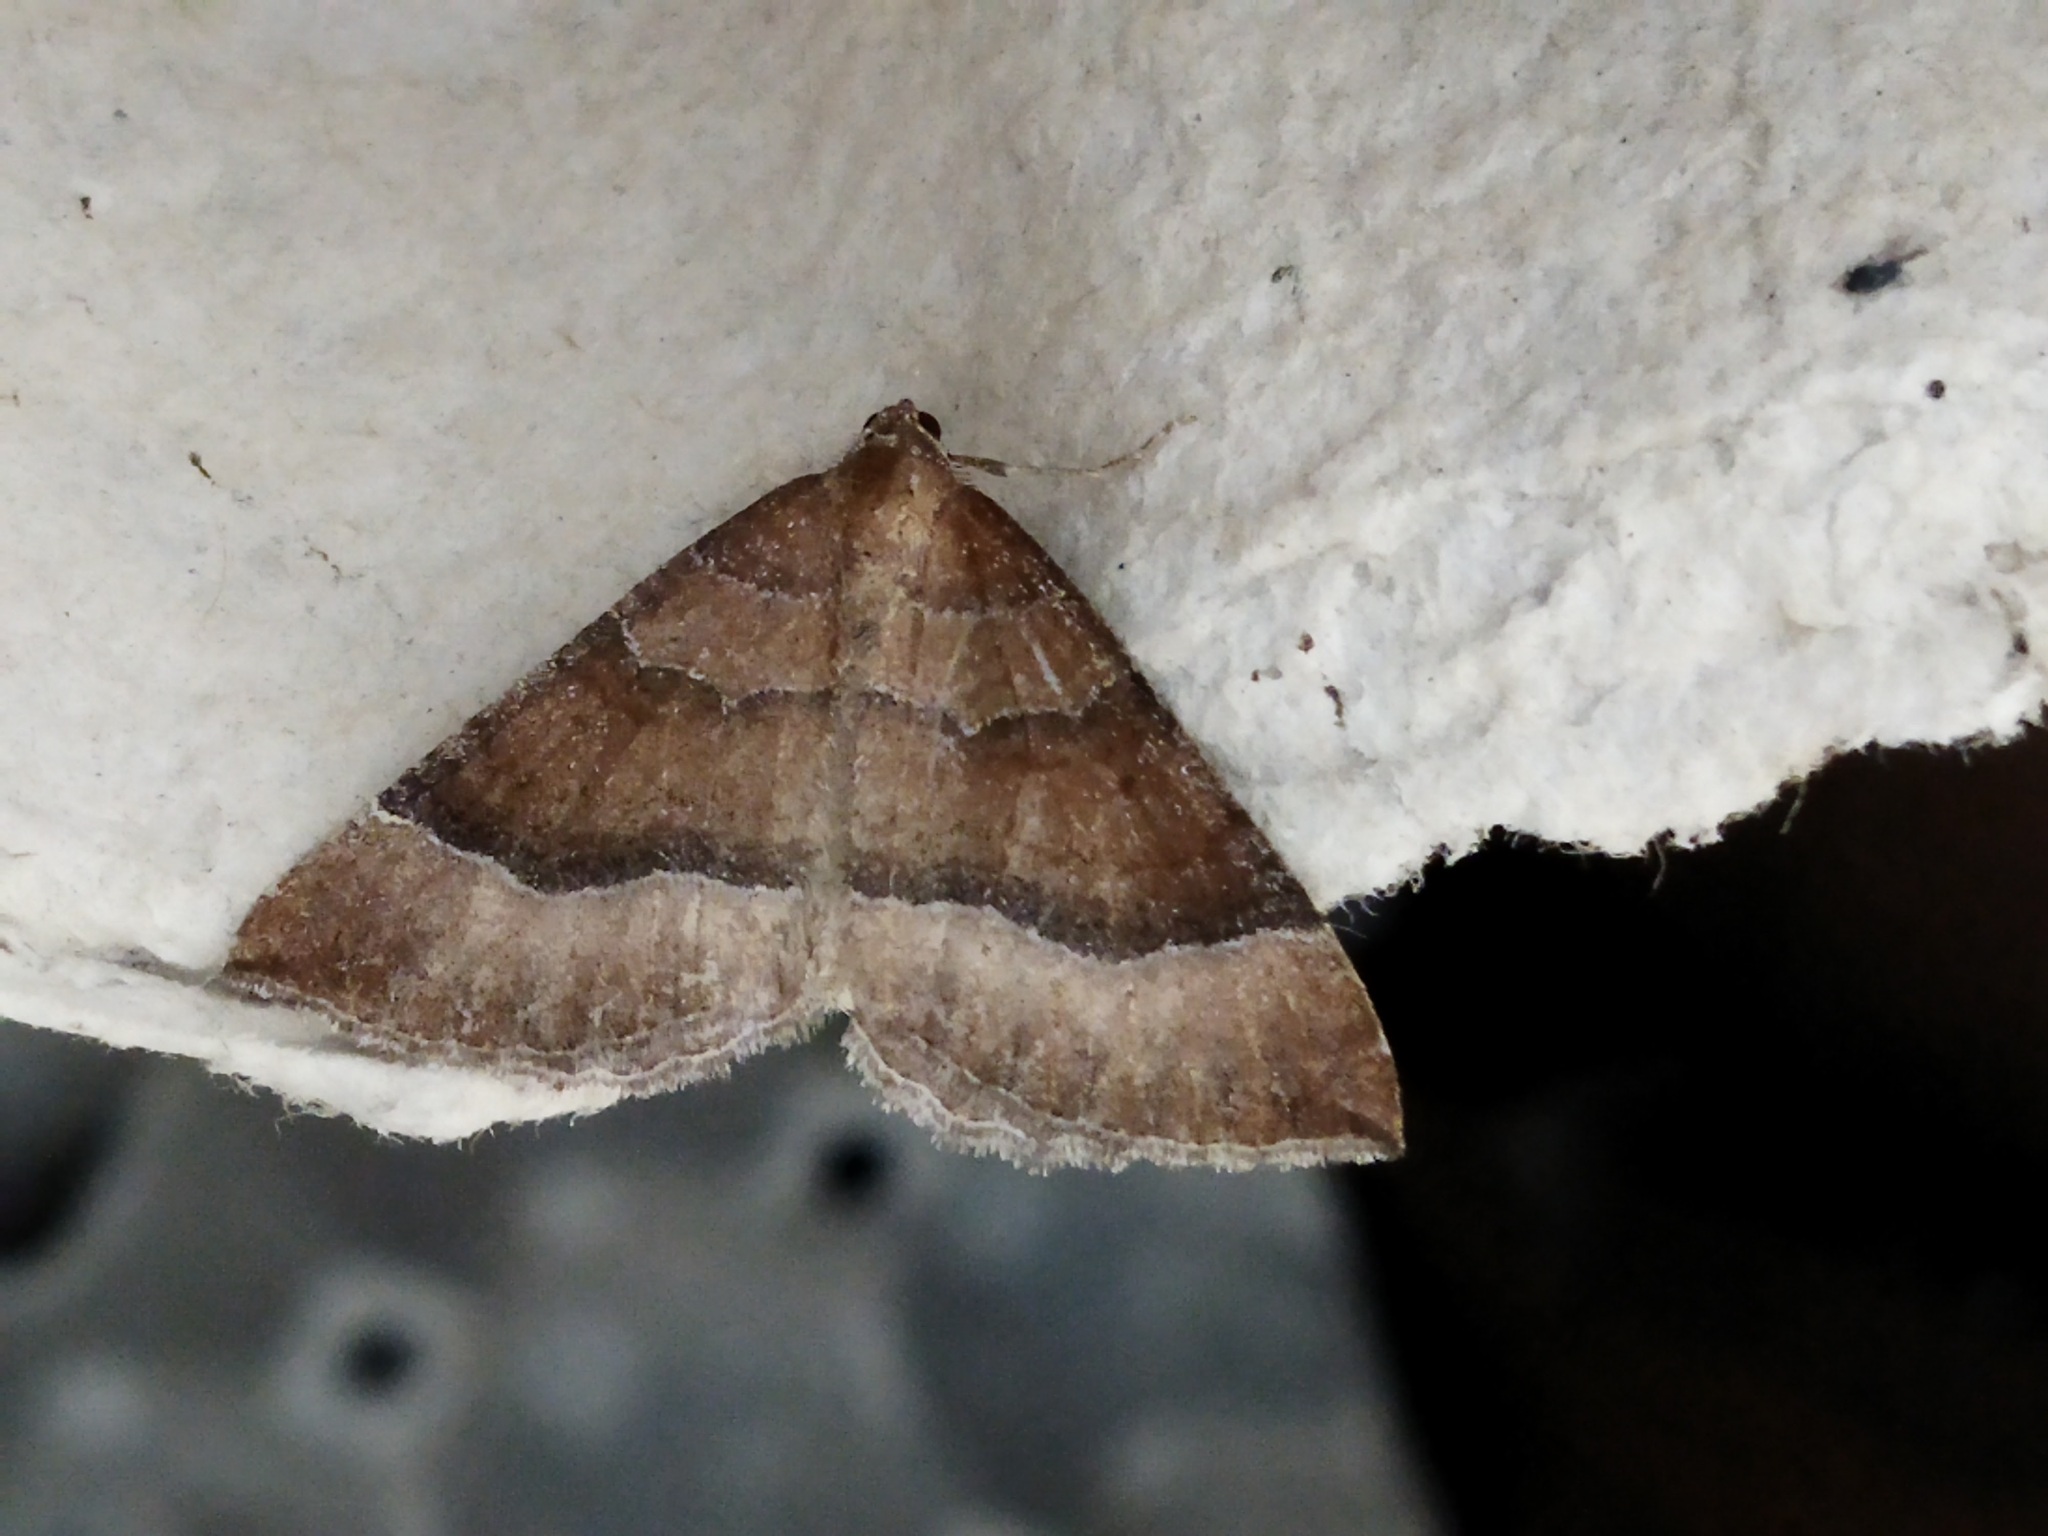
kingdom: Animalia
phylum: Arthropoda
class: Insecta
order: Lepidoptera
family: Geometridae
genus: Larentia
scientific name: Larentia clavaria
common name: Mallow
